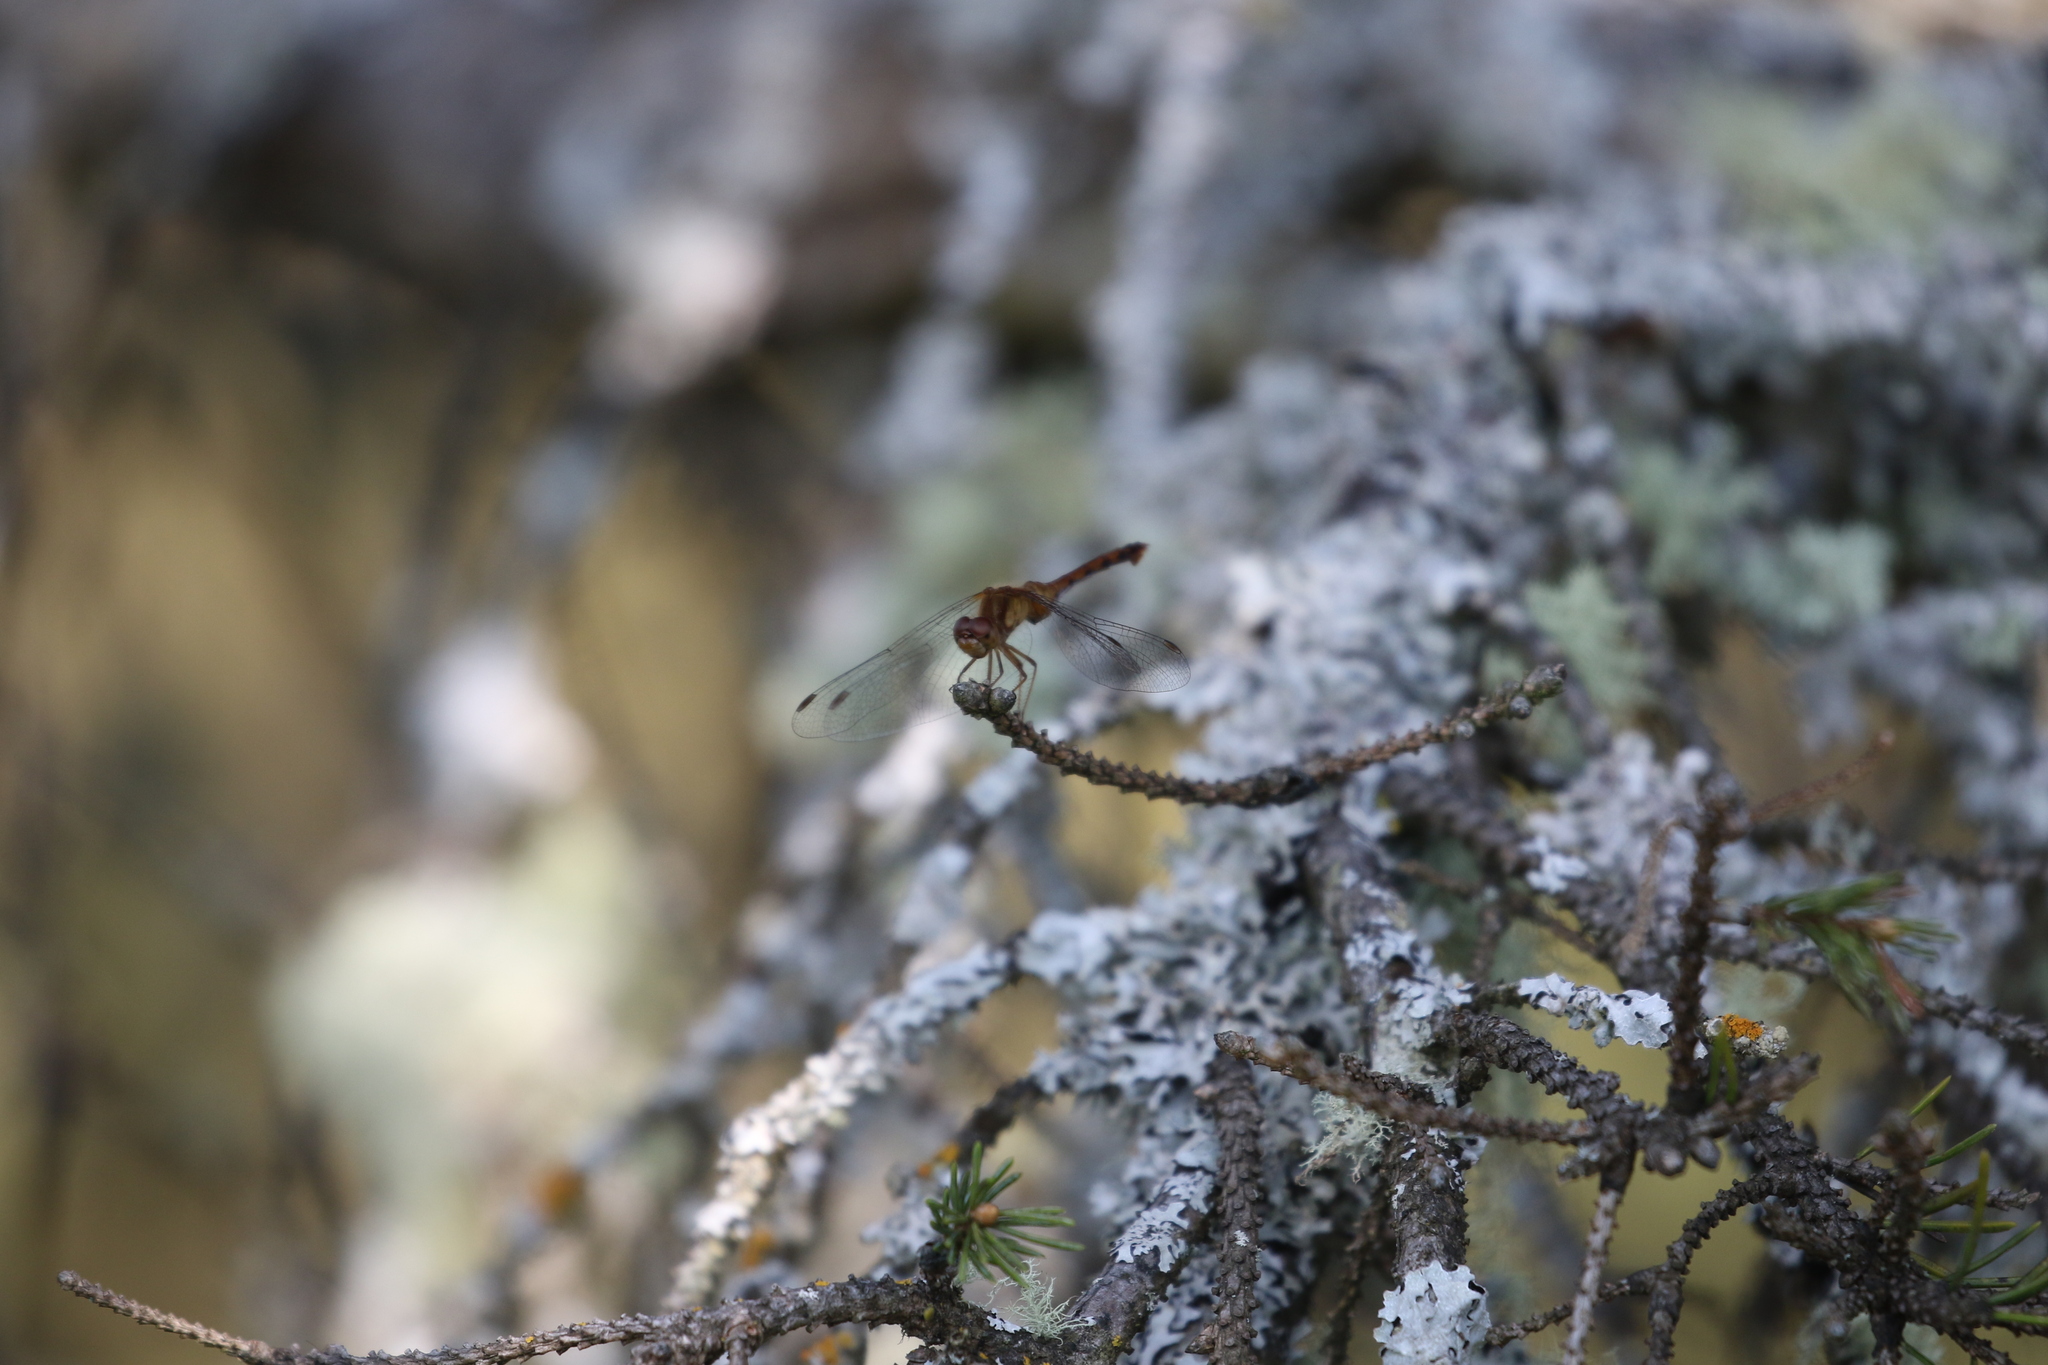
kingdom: Animalia
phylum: Arthropoda
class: Insecta
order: Odonata
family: Libellulidae
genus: Sympetrum
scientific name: Sympetrum vicinum
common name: Autumn meadowhawk
